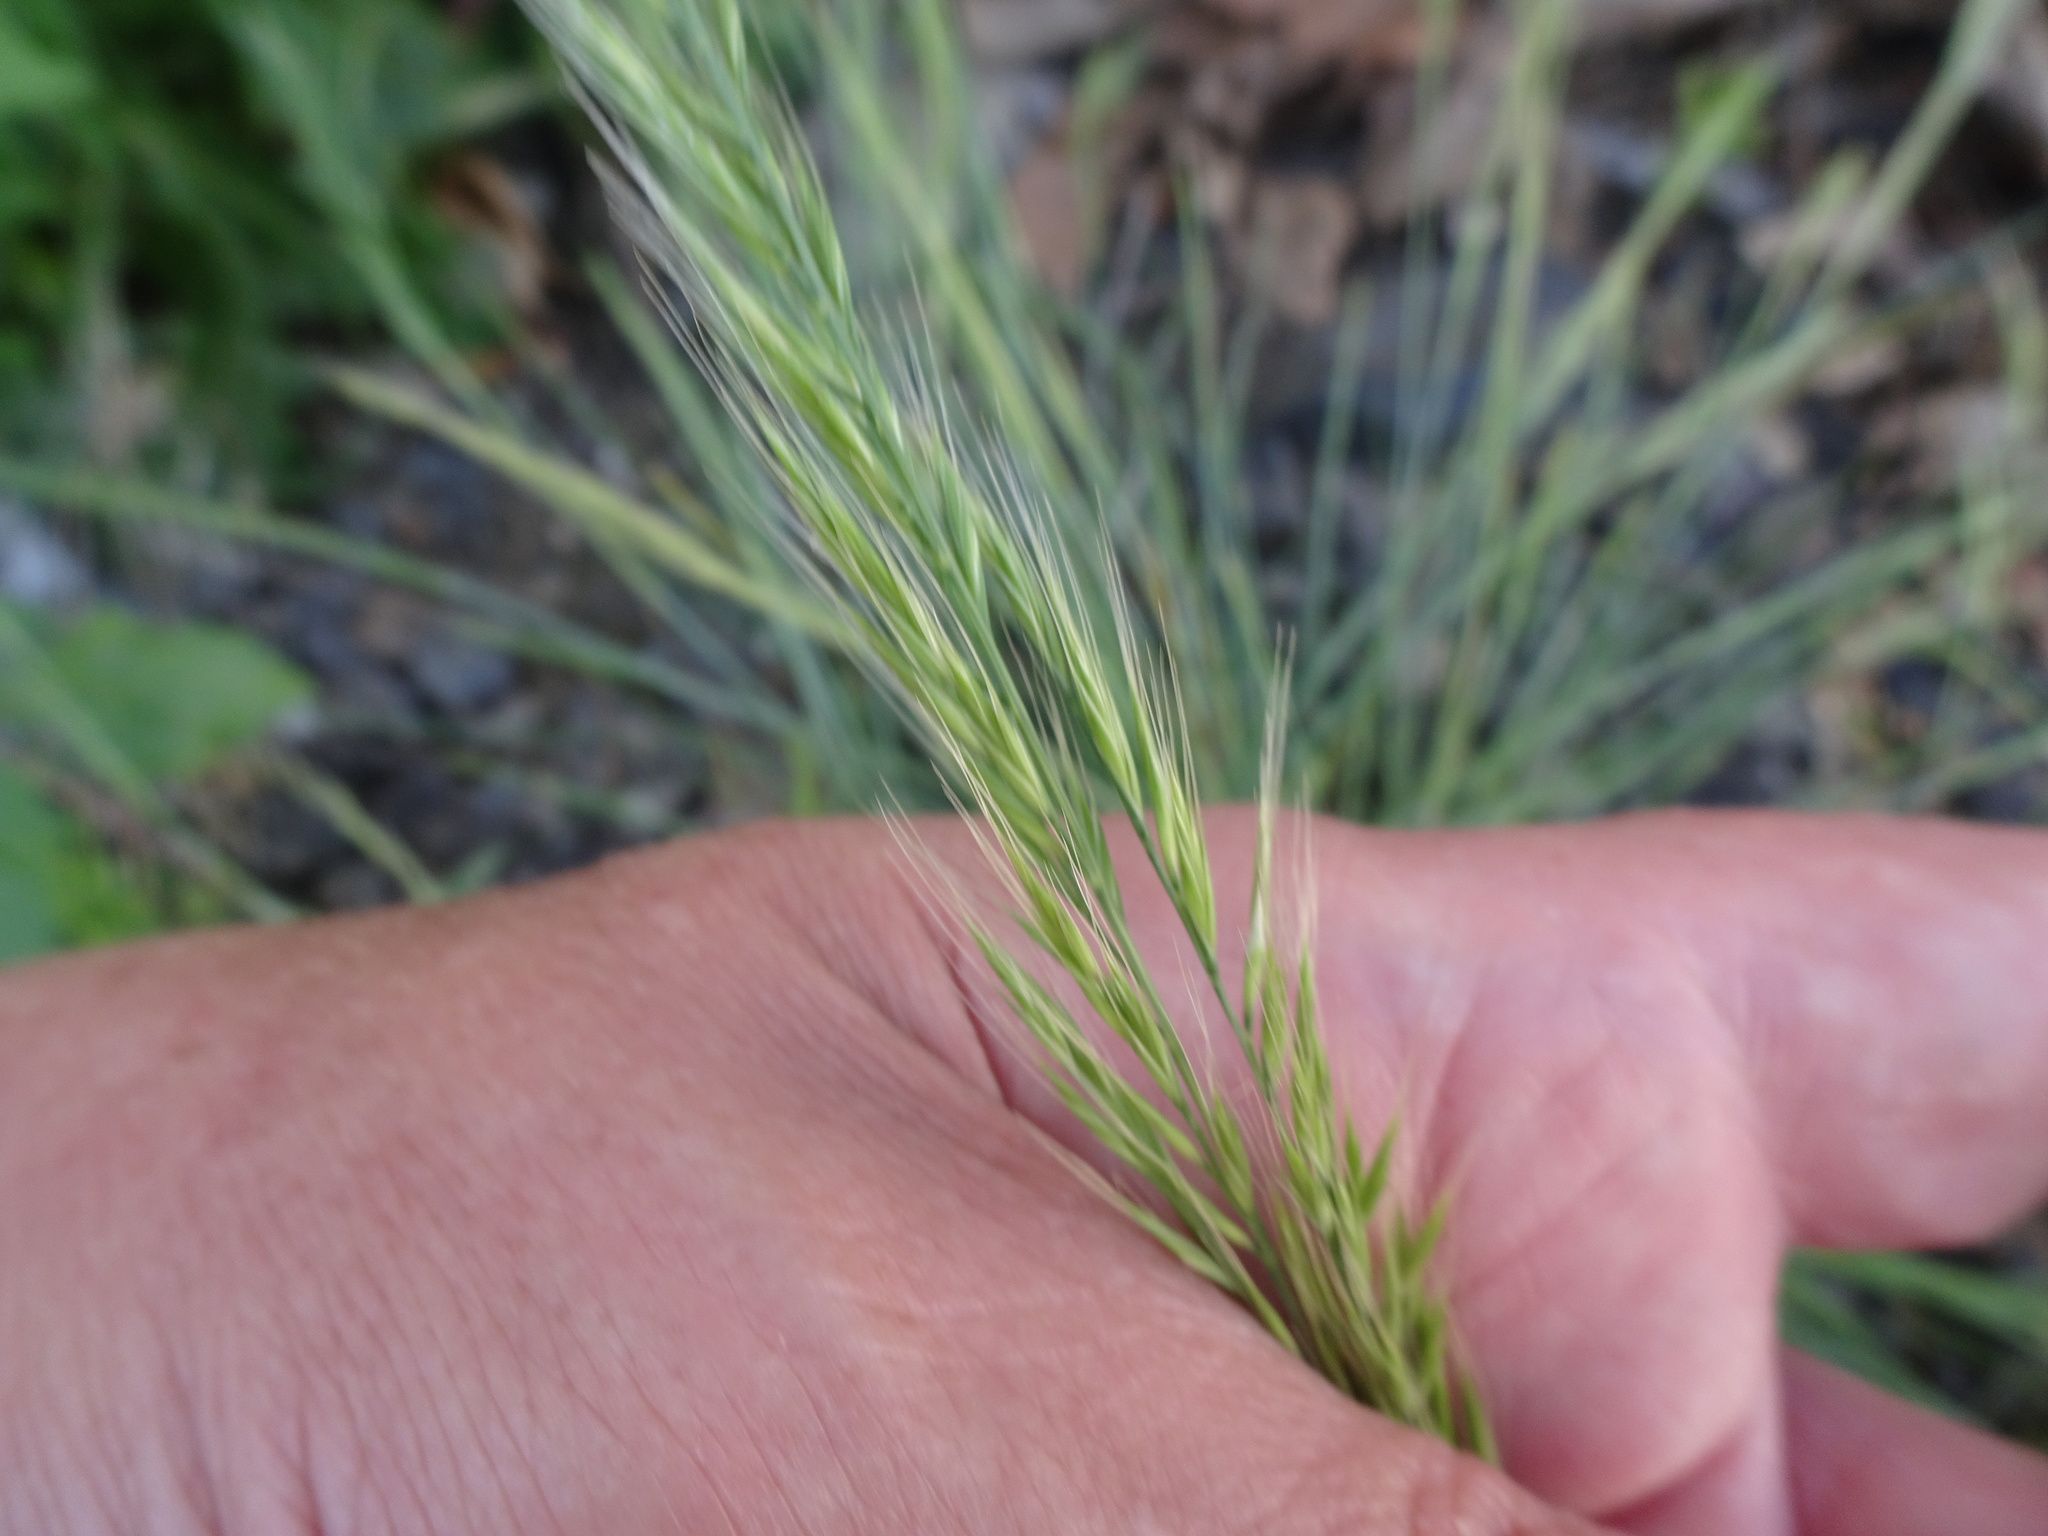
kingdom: Plantae
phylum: Tracheophyta
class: Liliopsida
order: Poales
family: Poaceae
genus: Festuca
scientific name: Festuca myuros
